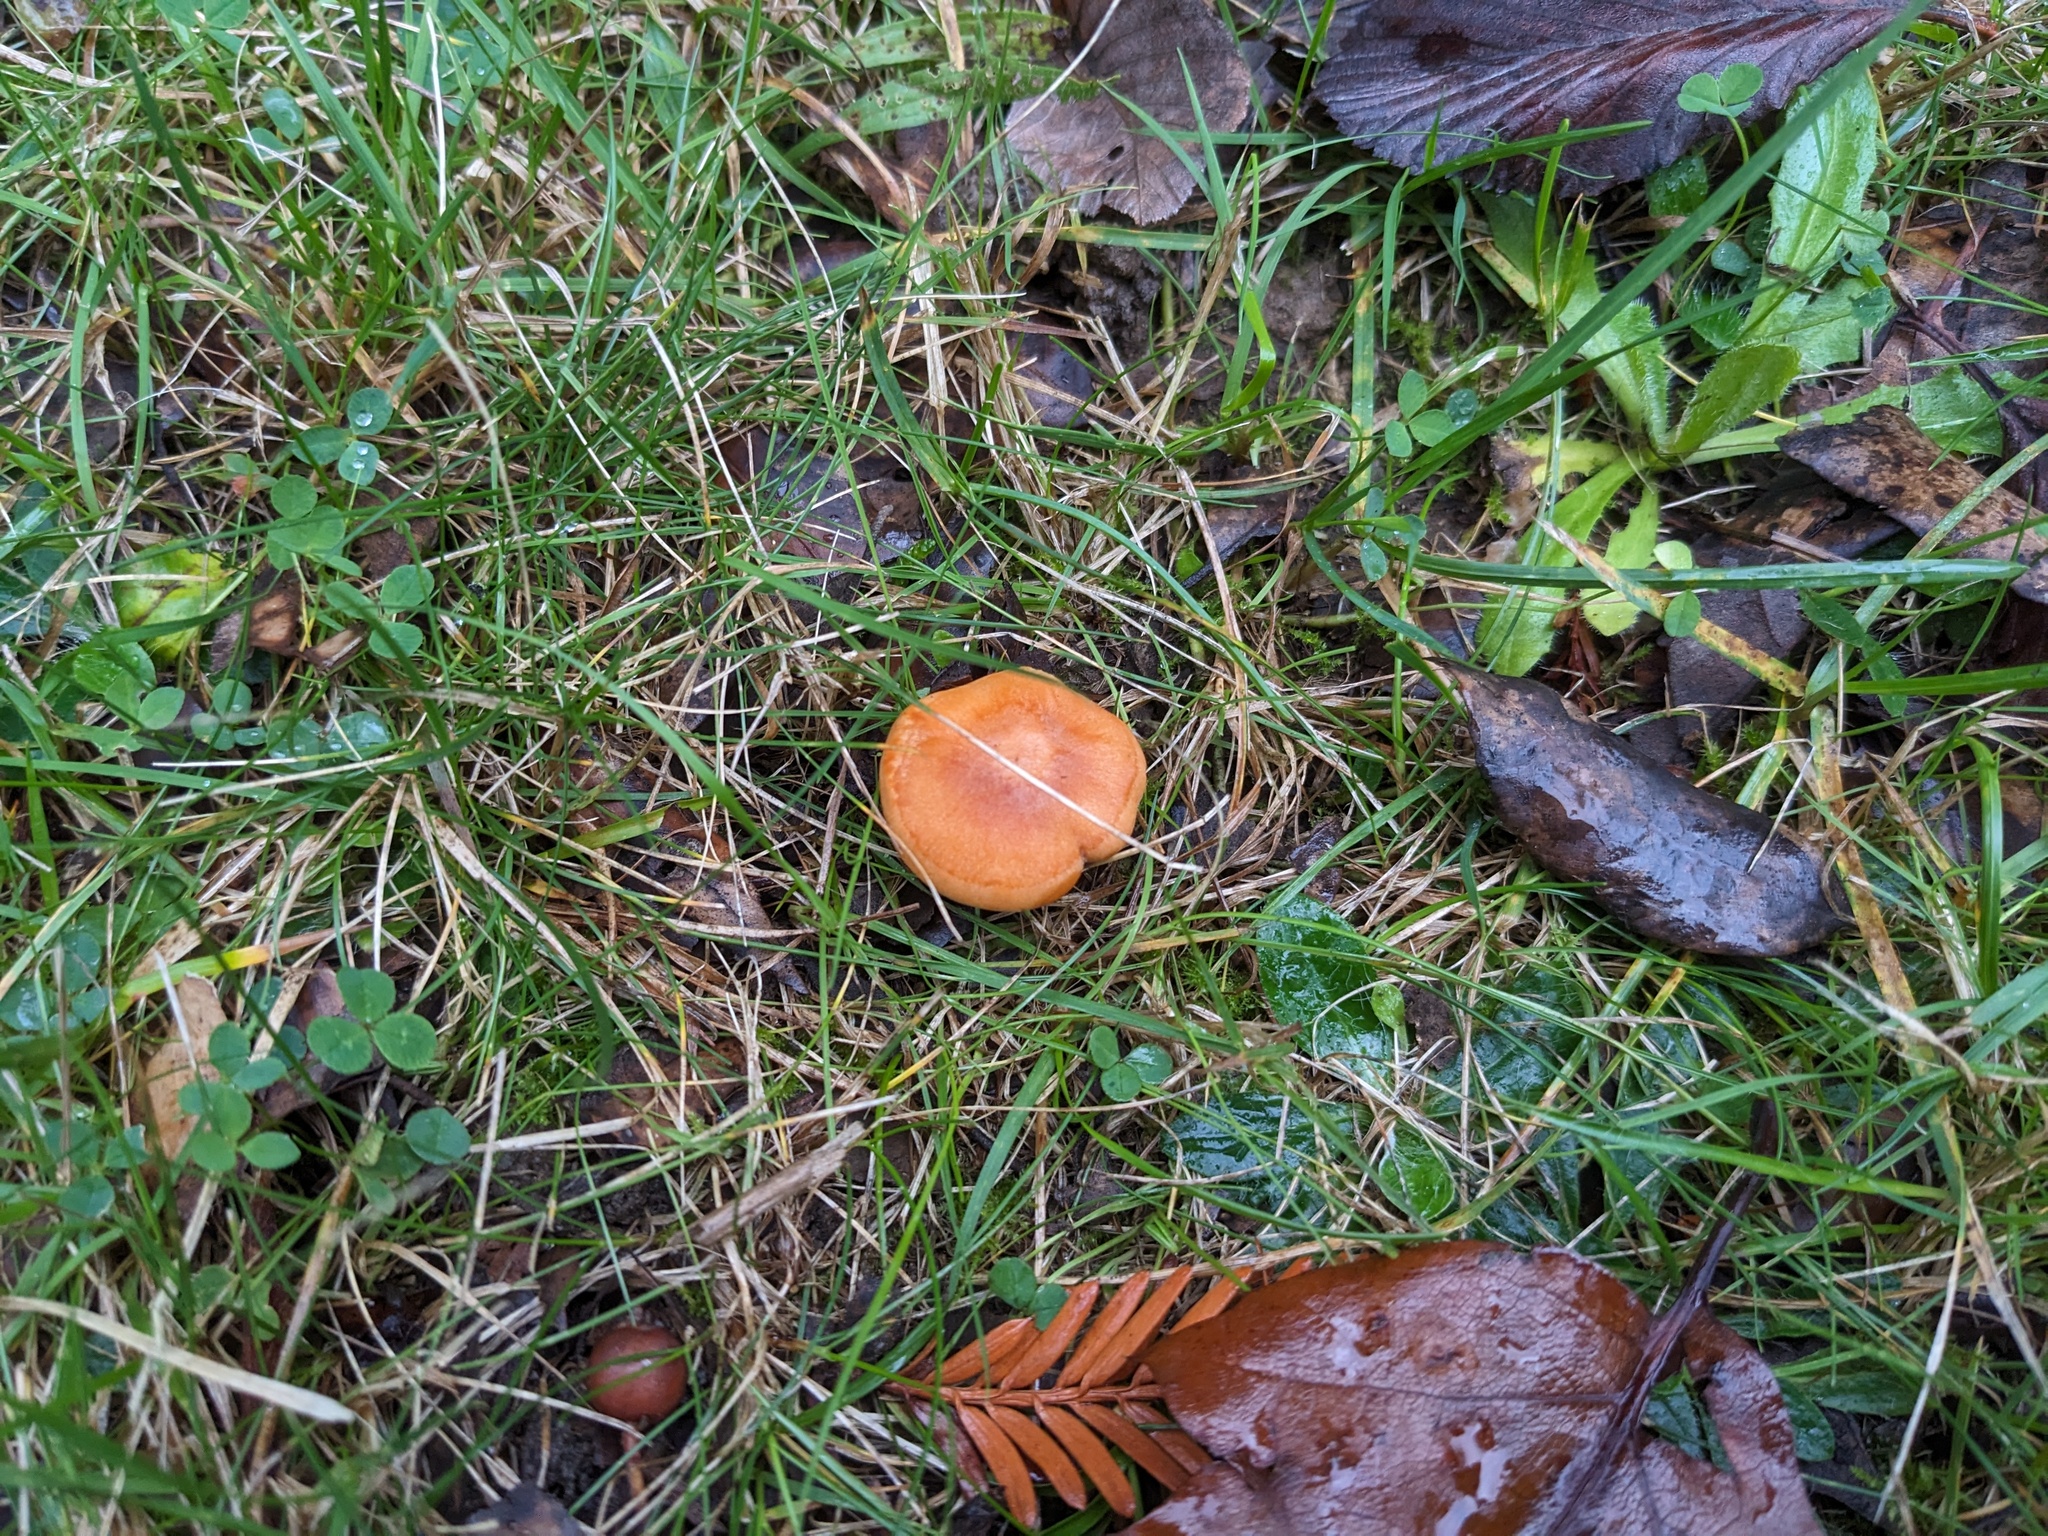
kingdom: Fungi
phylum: Basidiomycota
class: Agaricomycetes
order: Agaricales
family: Hygrophoraceae
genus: Cuphophyllus
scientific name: Cuphophyllus pratensis
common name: Meadow waxcap
